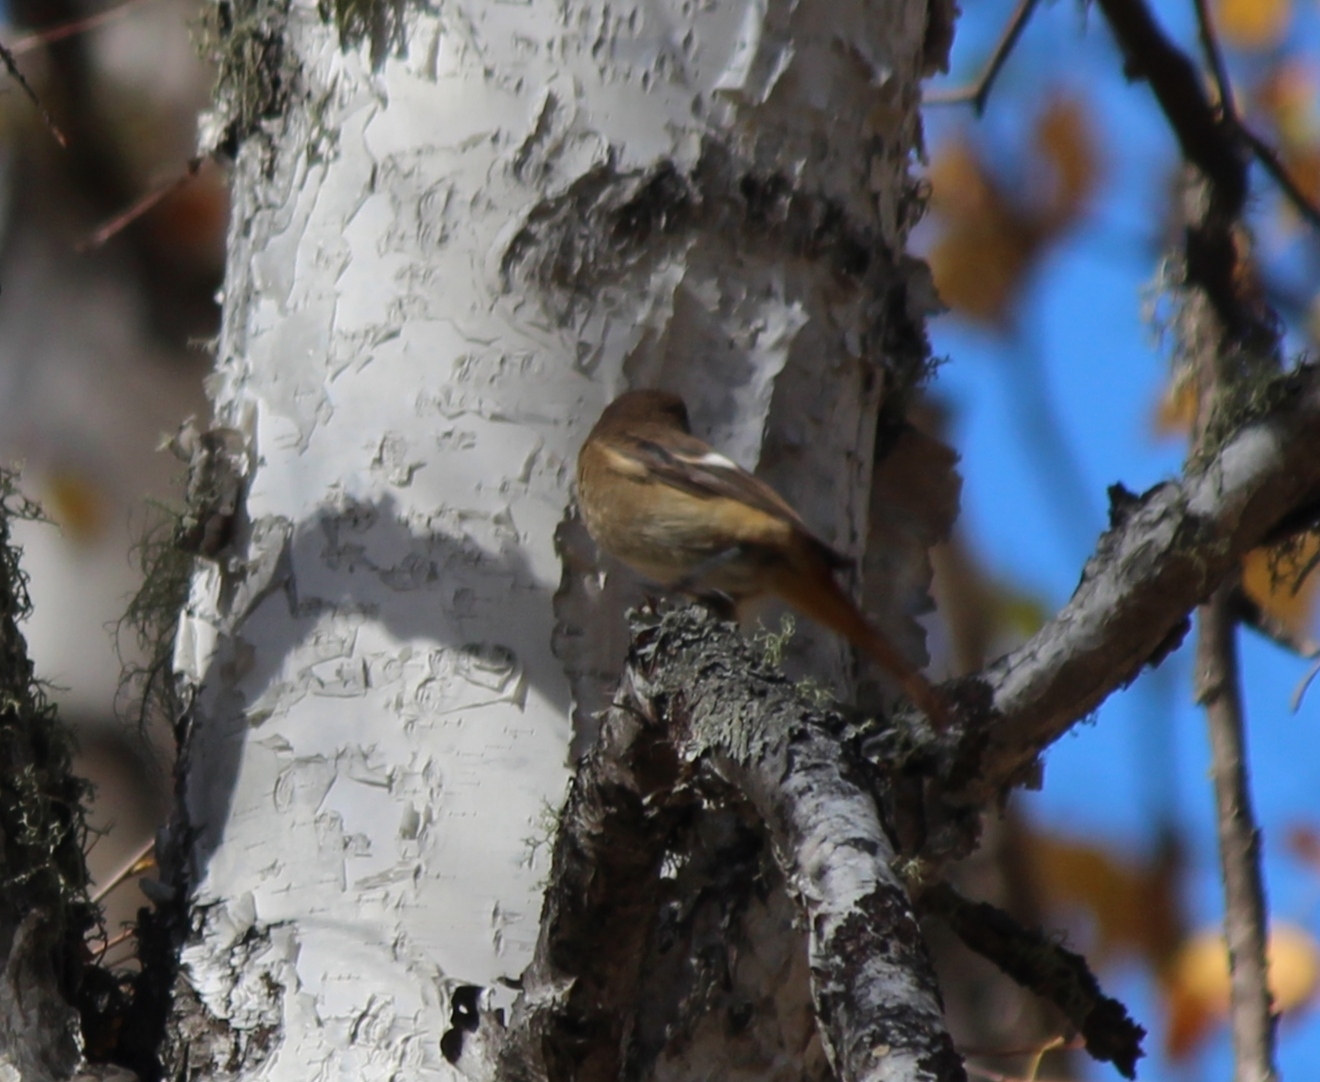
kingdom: Animalia
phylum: Chordata
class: Aves
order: Passeriformes
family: Muscicapidae
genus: Phoenicurus
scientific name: Phoenicurus auroreus
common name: Daurian redstart
